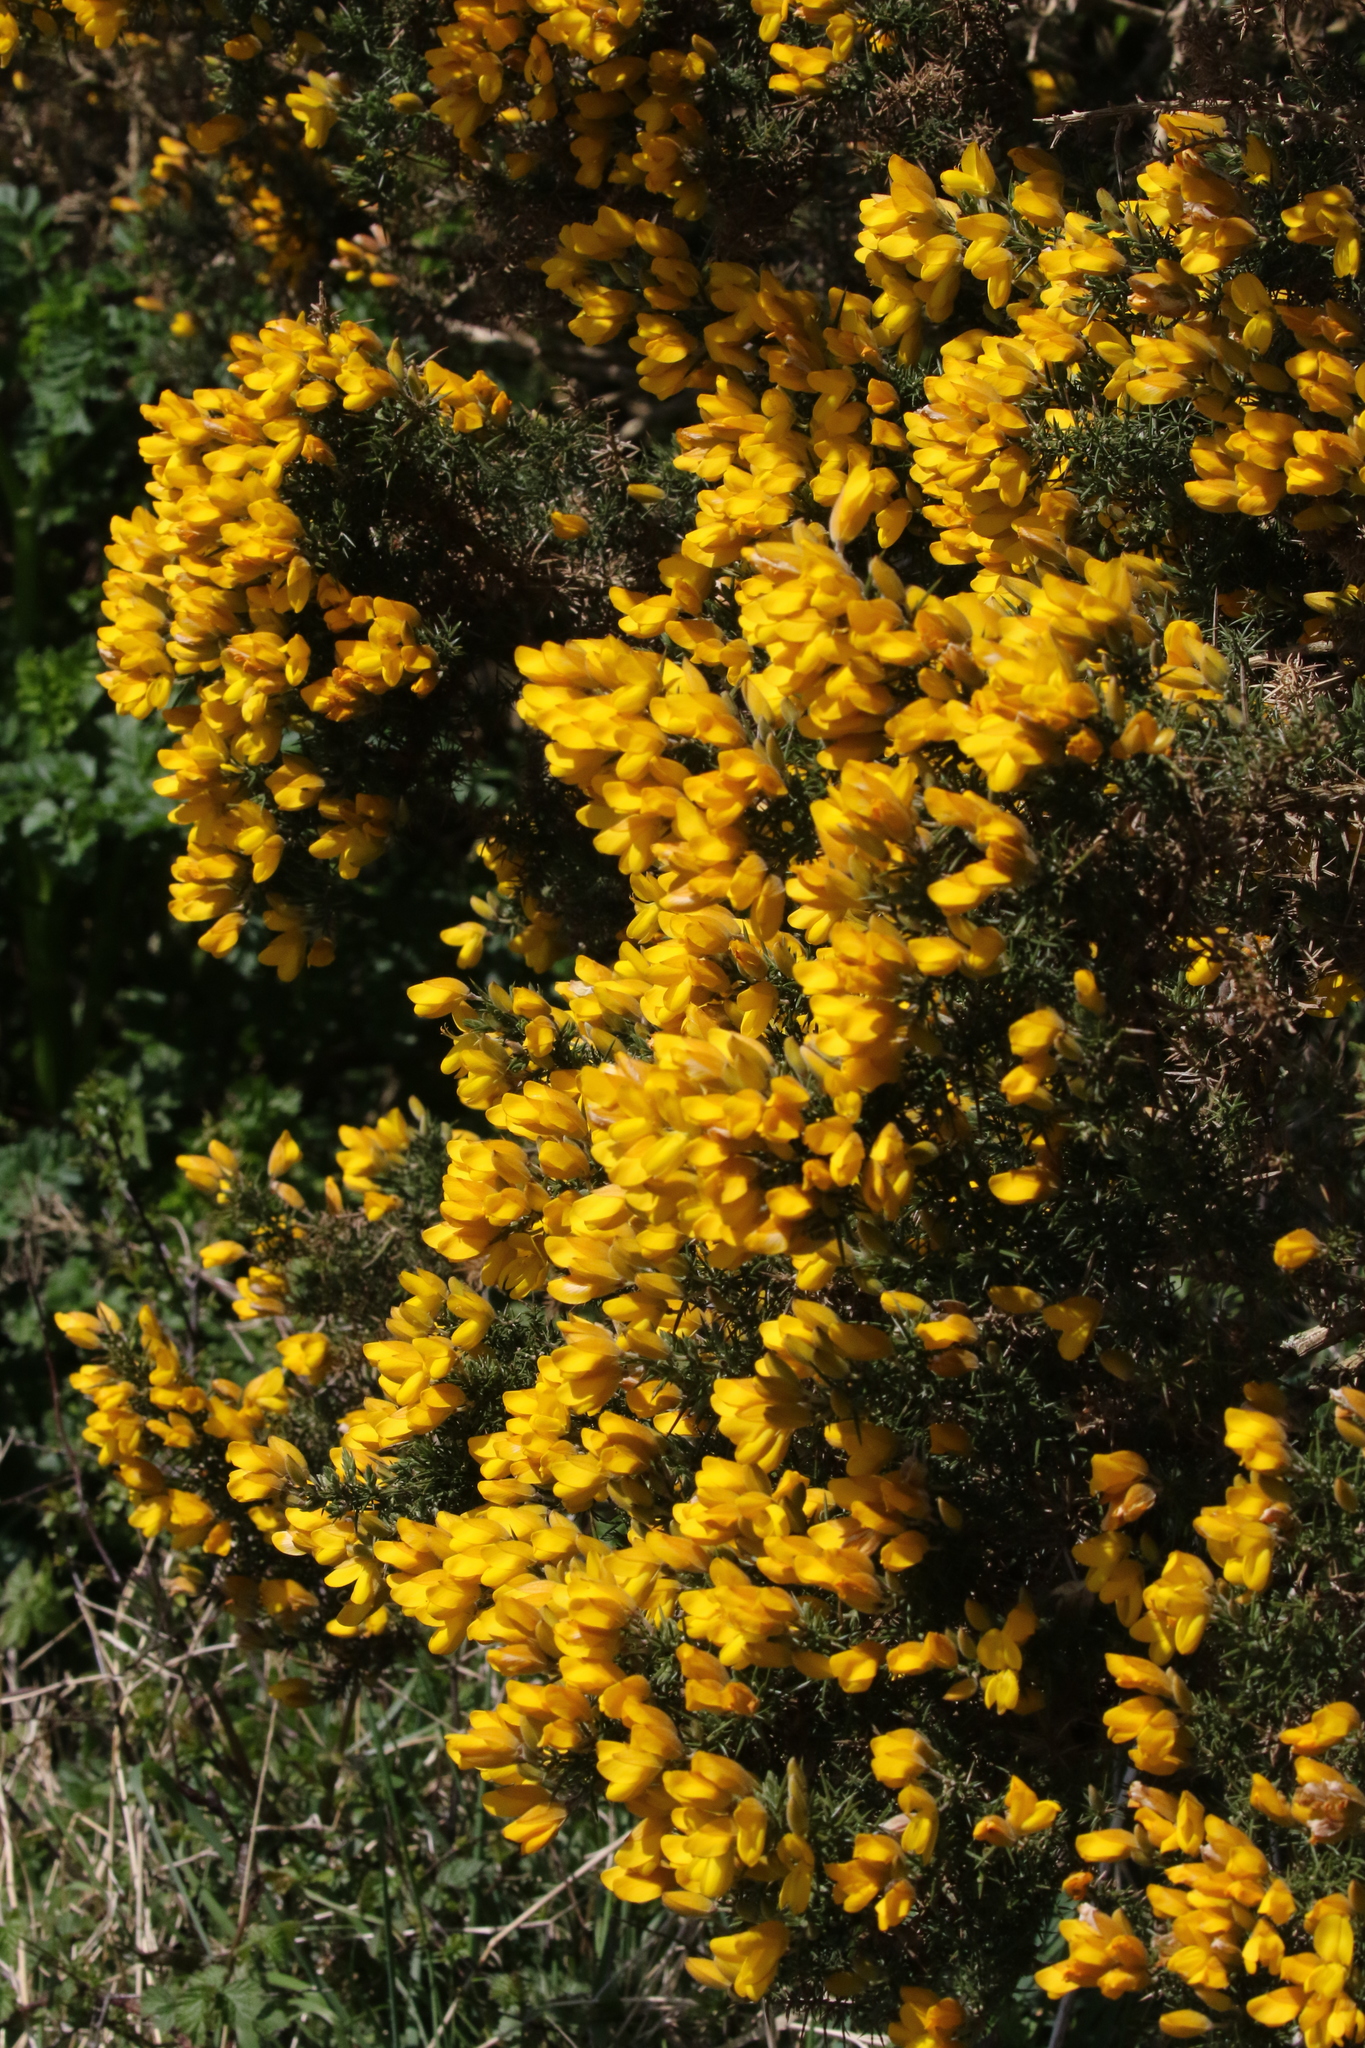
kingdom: Plantae
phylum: Tracheophyta
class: Magnoliopsida
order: Fabales
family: Fabaceae
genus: Ulex
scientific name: Ulex europaeus
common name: Common gorse
